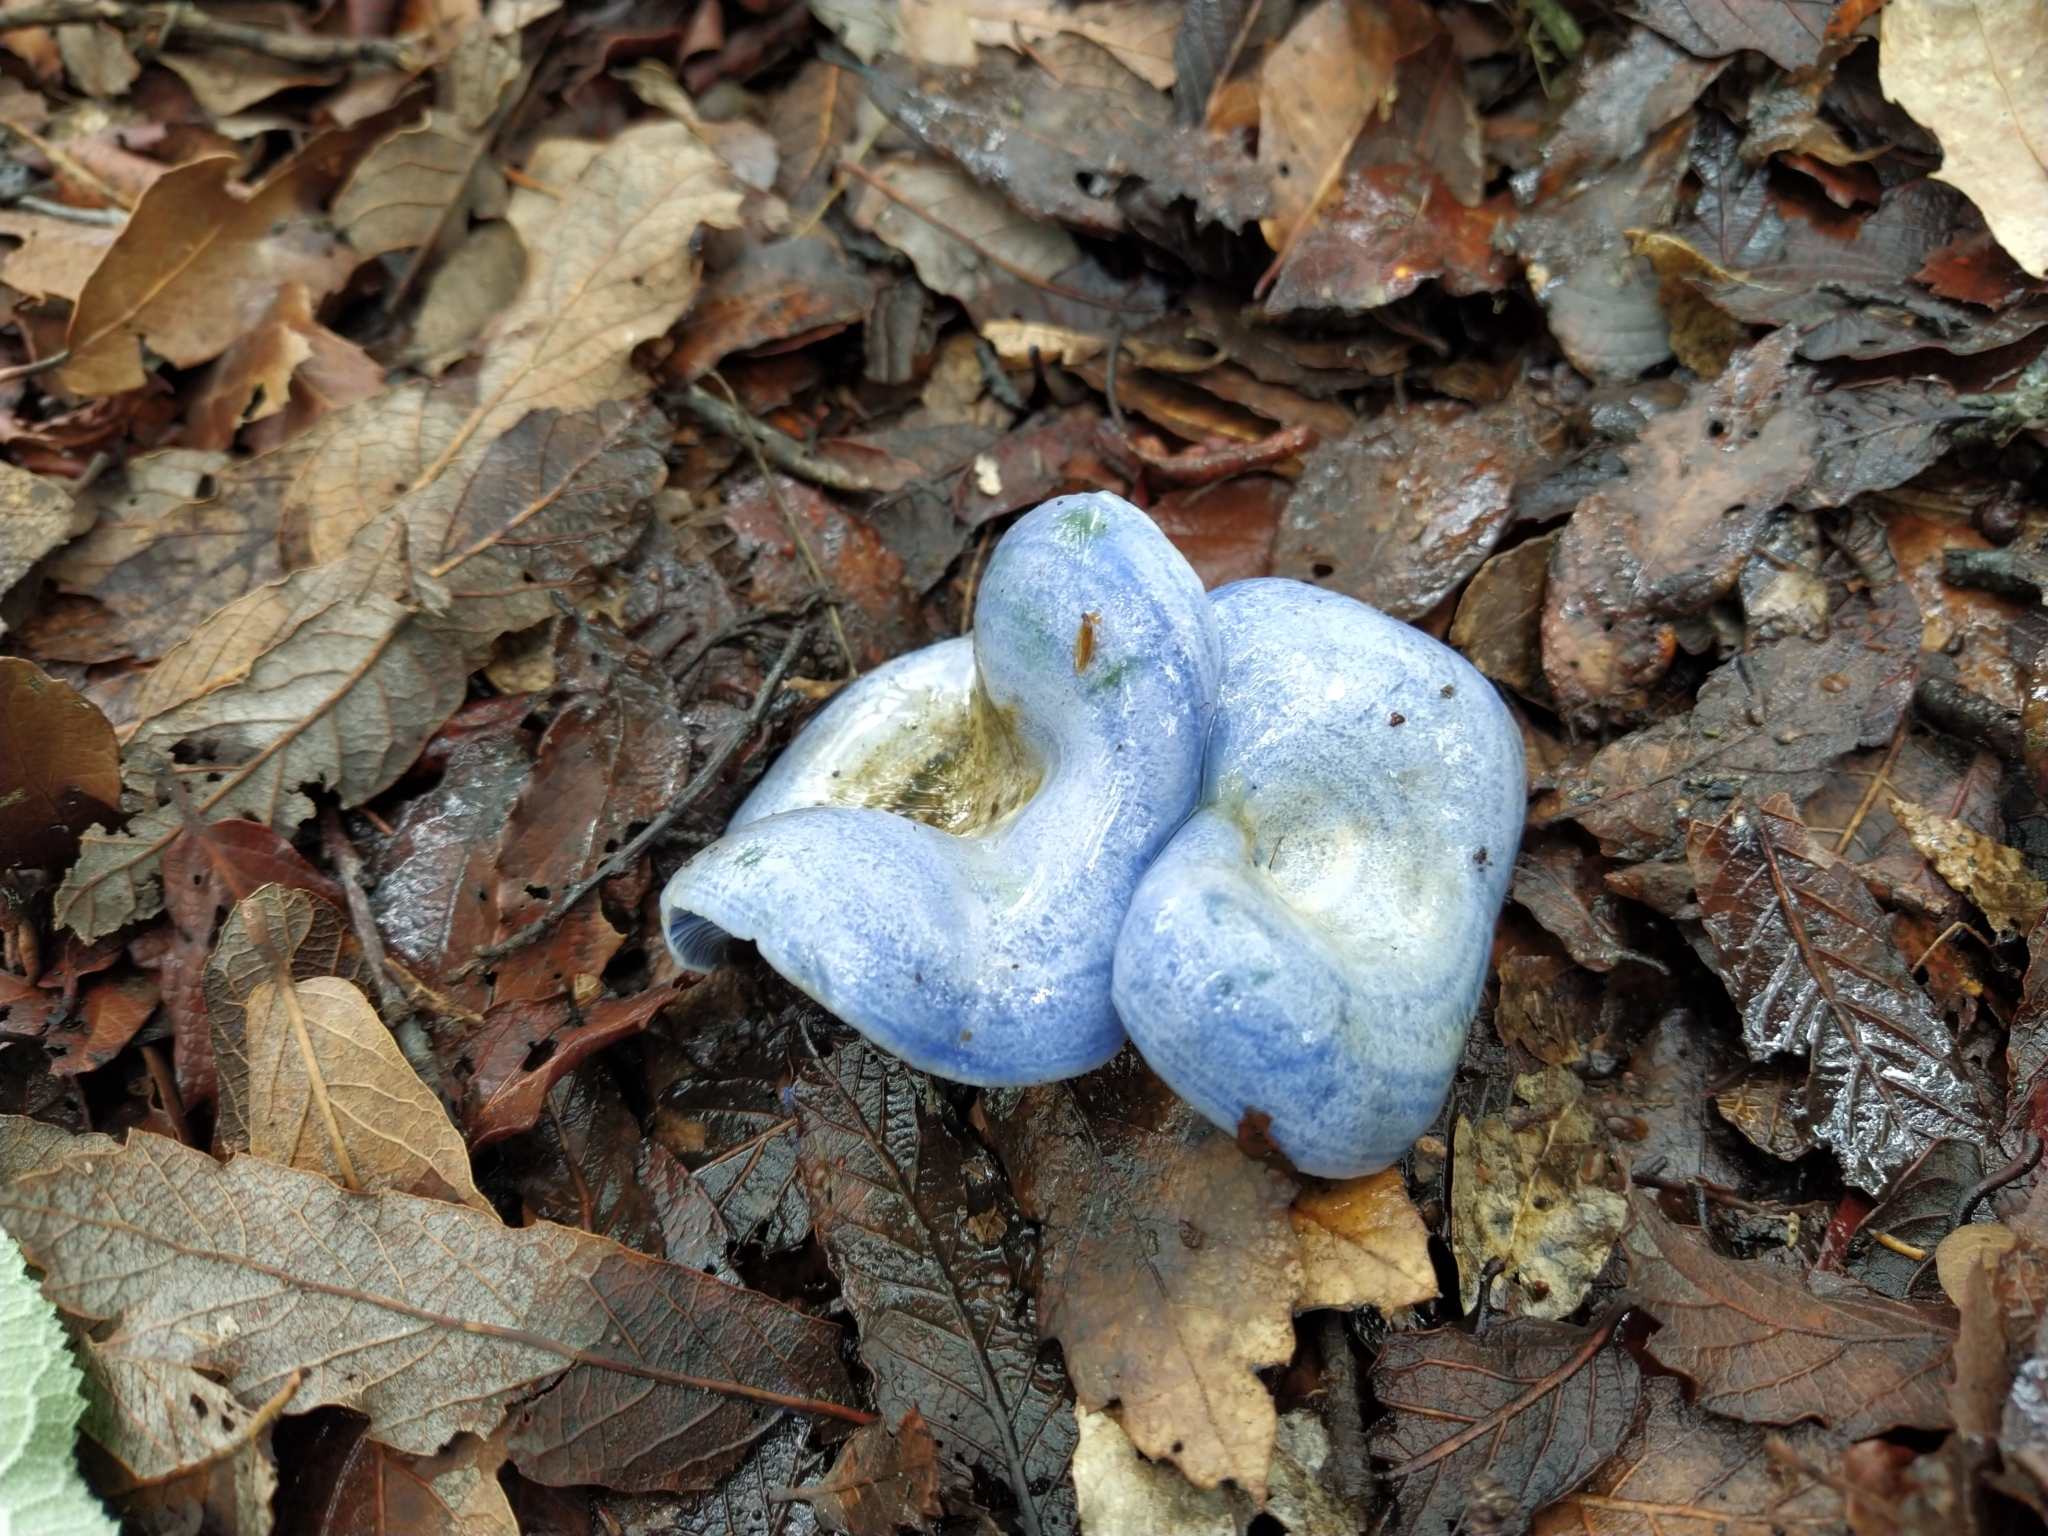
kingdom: Fungi
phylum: Basidiomycota
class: Agaricomycetes
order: Russulales
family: Russulaceae
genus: Lactarius
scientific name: Lactarius indigo
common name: Indigo milk cap
